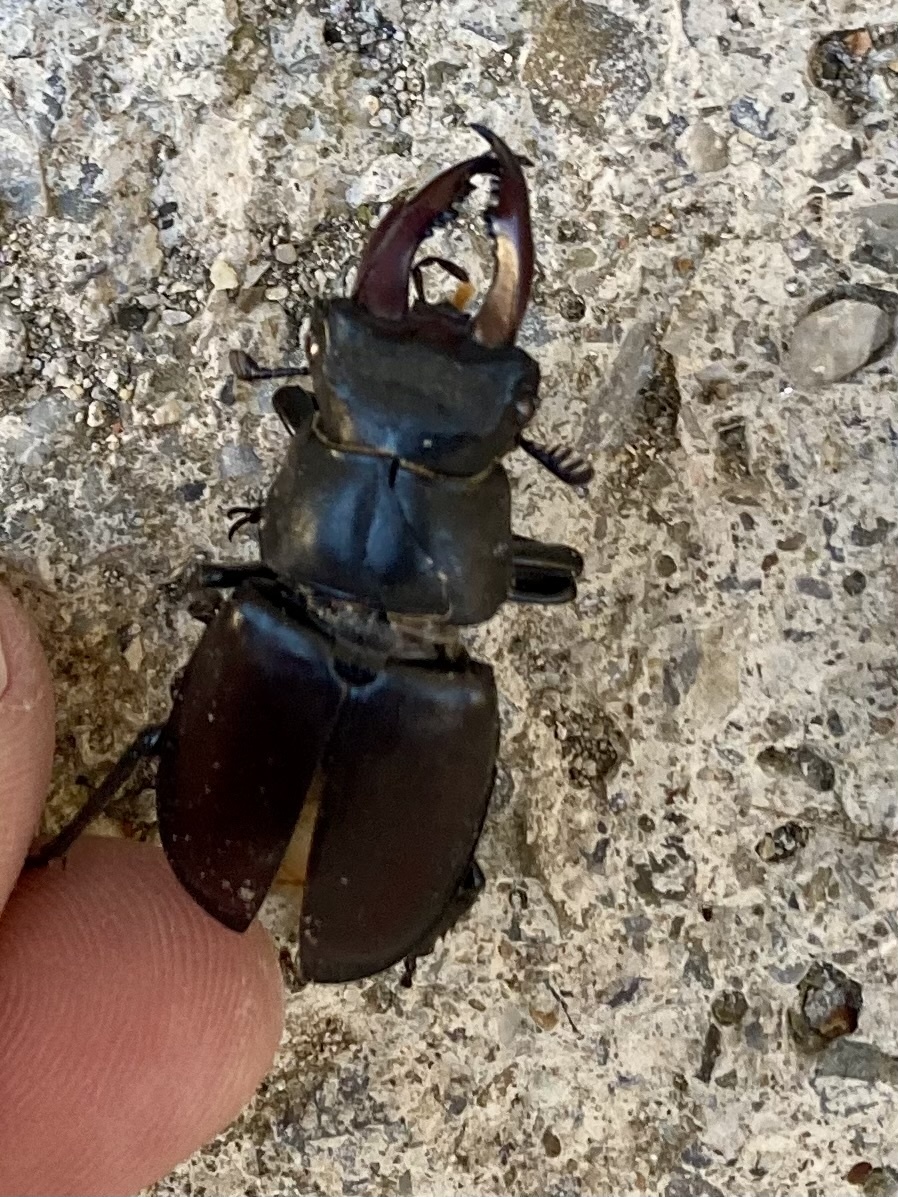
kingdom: Animalia
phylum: Arthropoda
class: Insecta
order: Coleoptera
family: Lucanidae
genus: Lucanus
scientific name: Lucanus cervus
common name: Stag beetle
